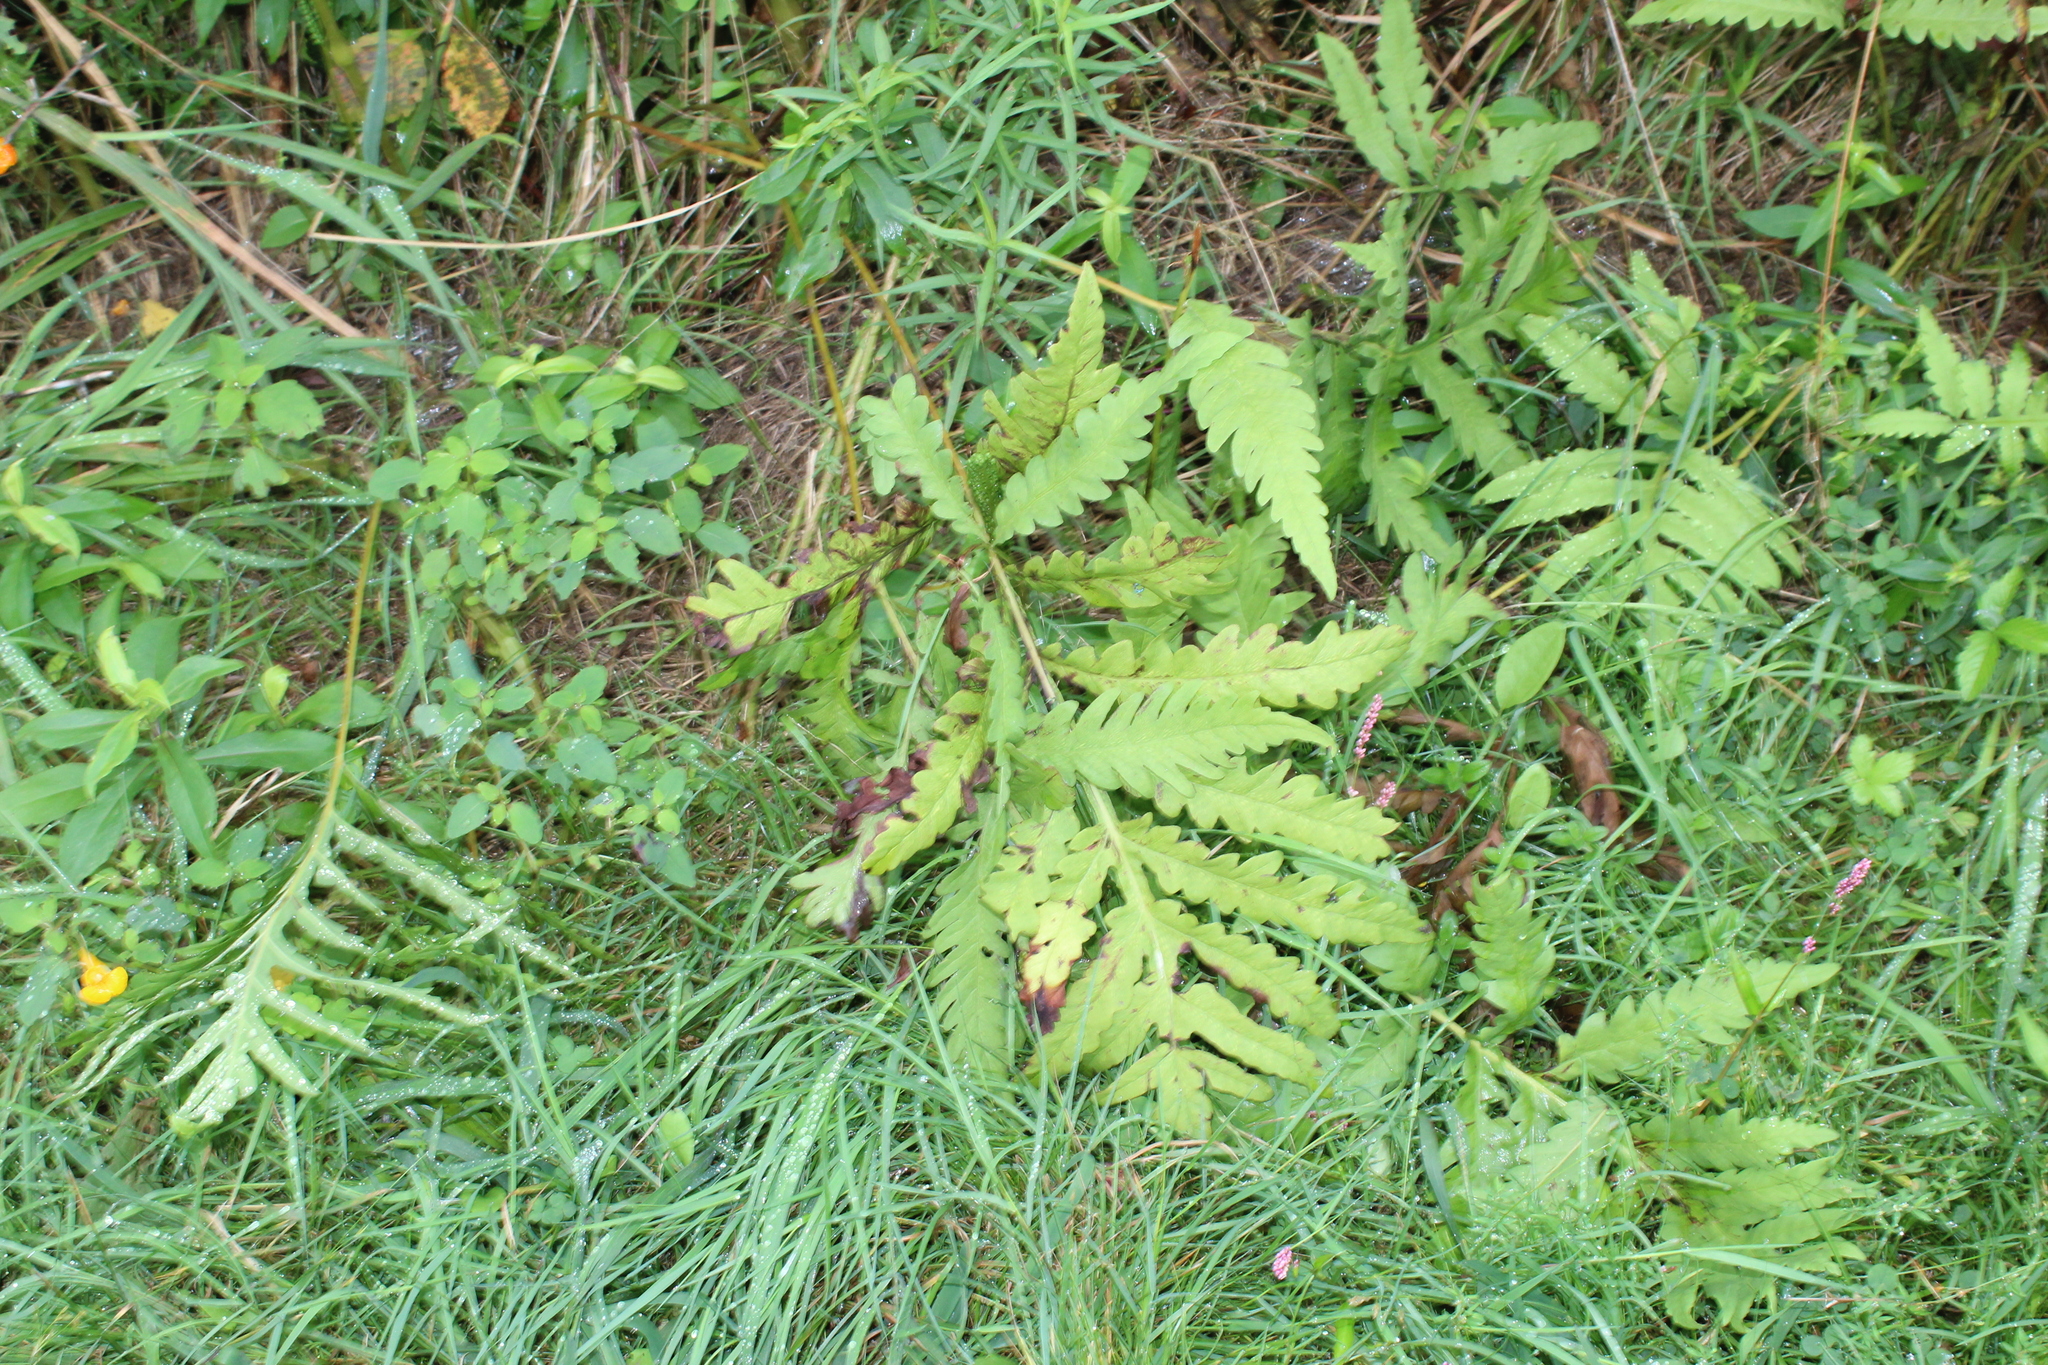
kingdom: Plantae
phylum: Tracheophyta
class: Polypodiopsida
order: Polypodiales
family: Onocleaceae
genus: Onoclea
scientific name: Onoclea sensibilis
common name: Sensitive fern
